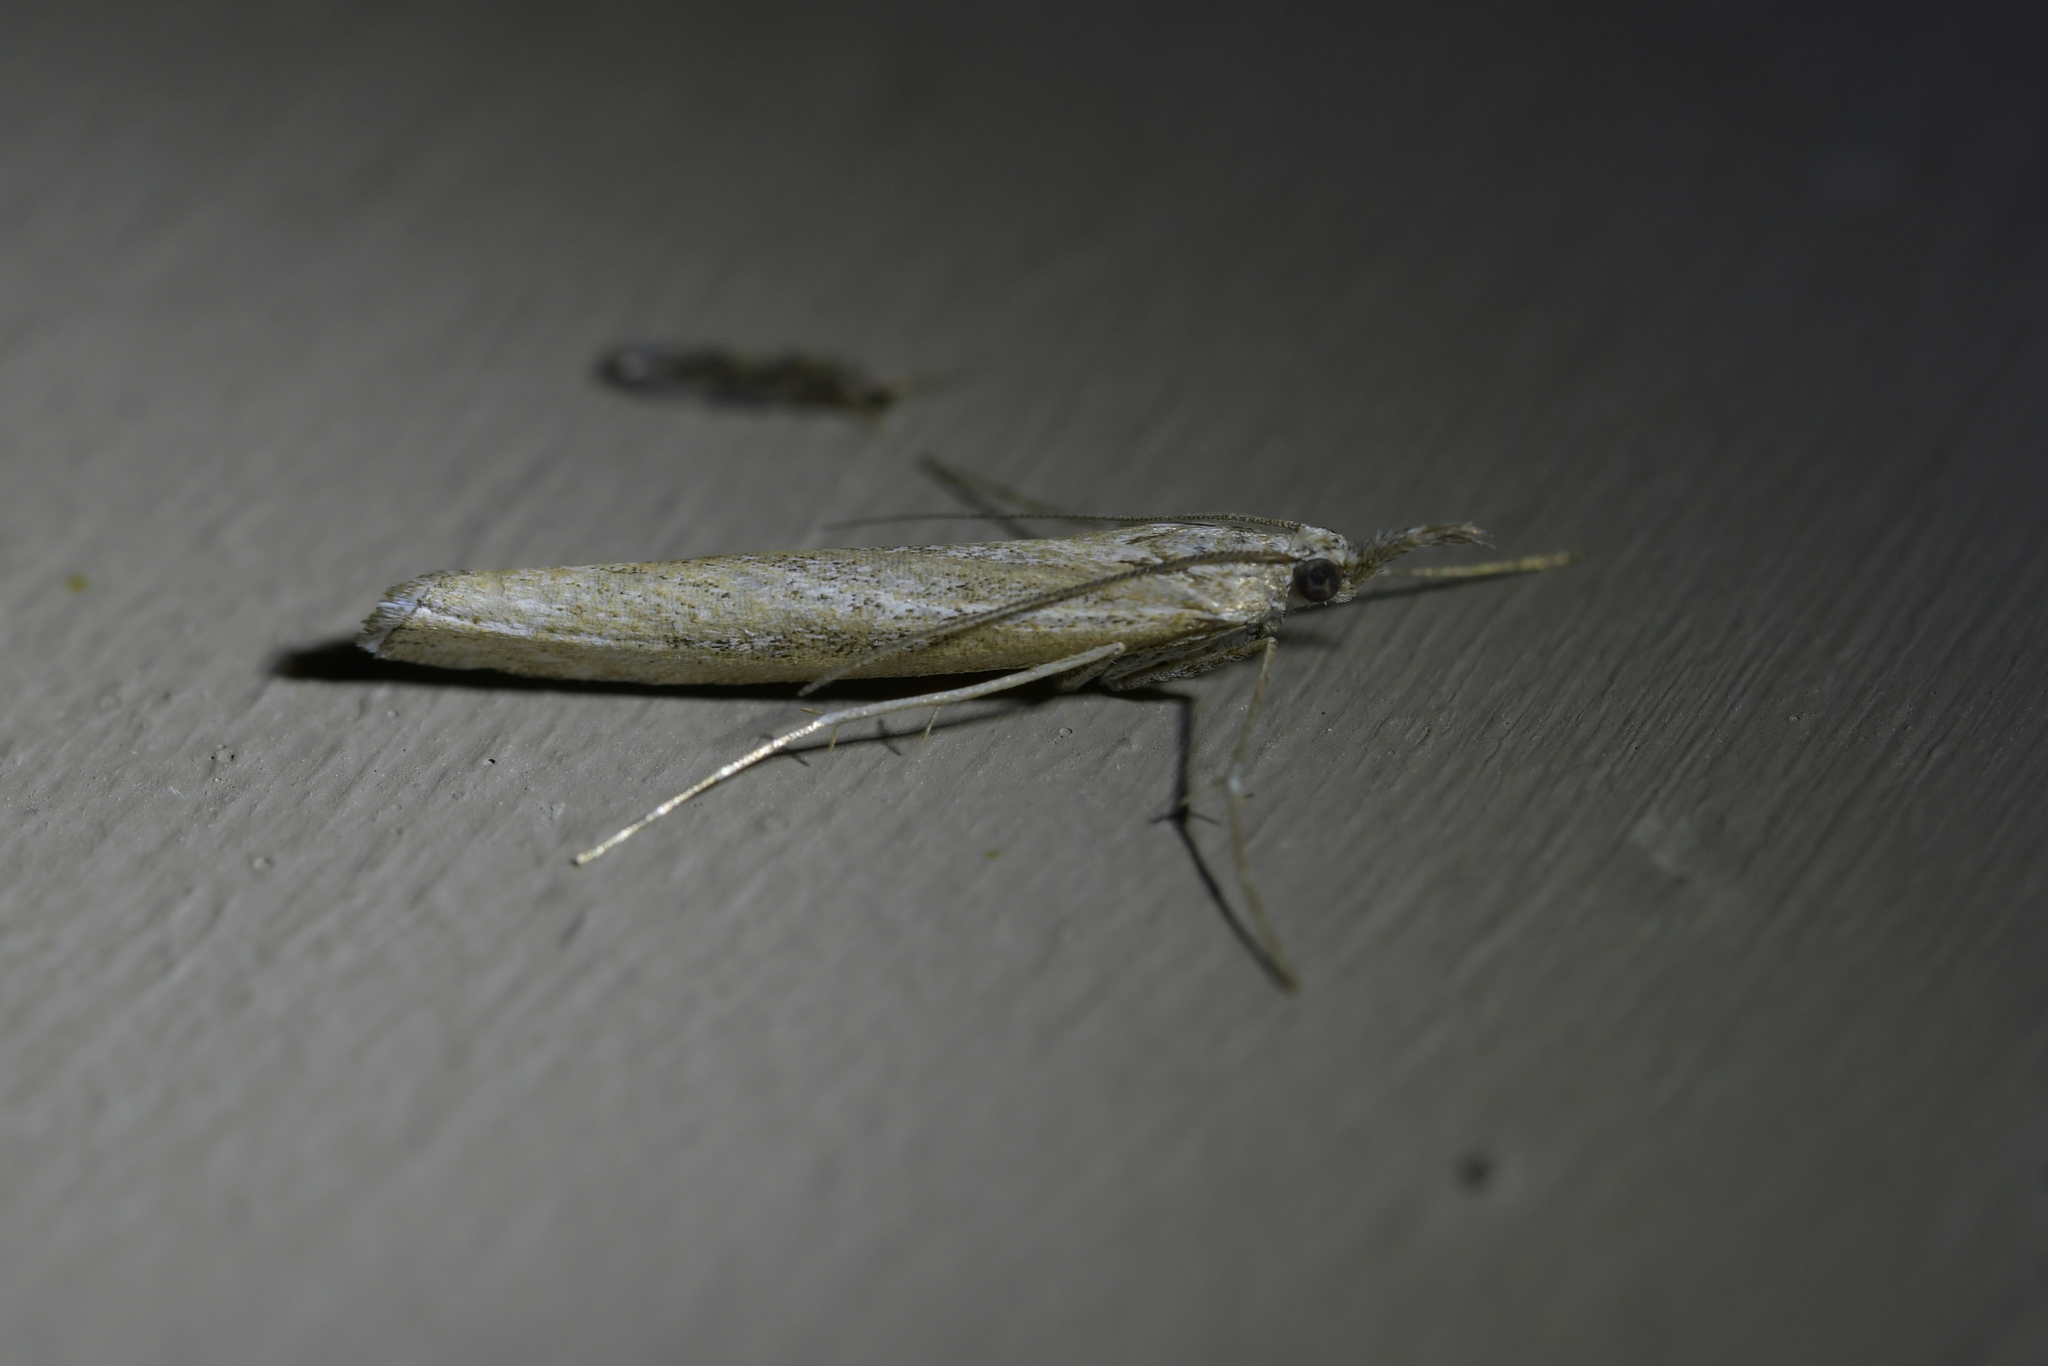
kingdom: Animalia
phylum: Arthropoda
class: Insecta
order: Lepidoptera
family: Crambidae
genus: Orocrambus
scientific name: Orocrambus cyclopicus
